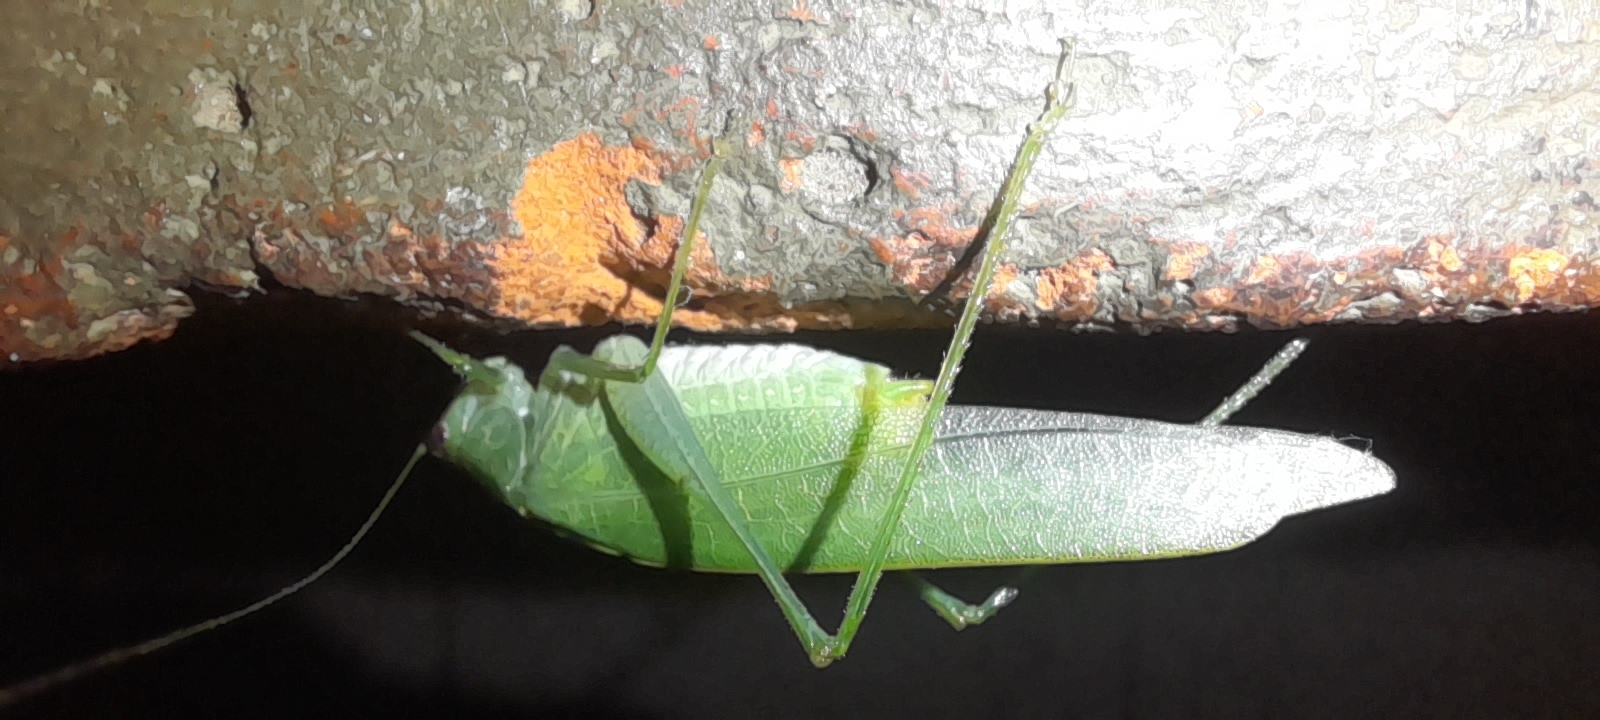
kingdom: Animalia
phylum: Arthropoda
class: Insecta
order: Orthoptera
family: Tettigoniidae
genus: Grammadera
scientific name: Grammadera clara
